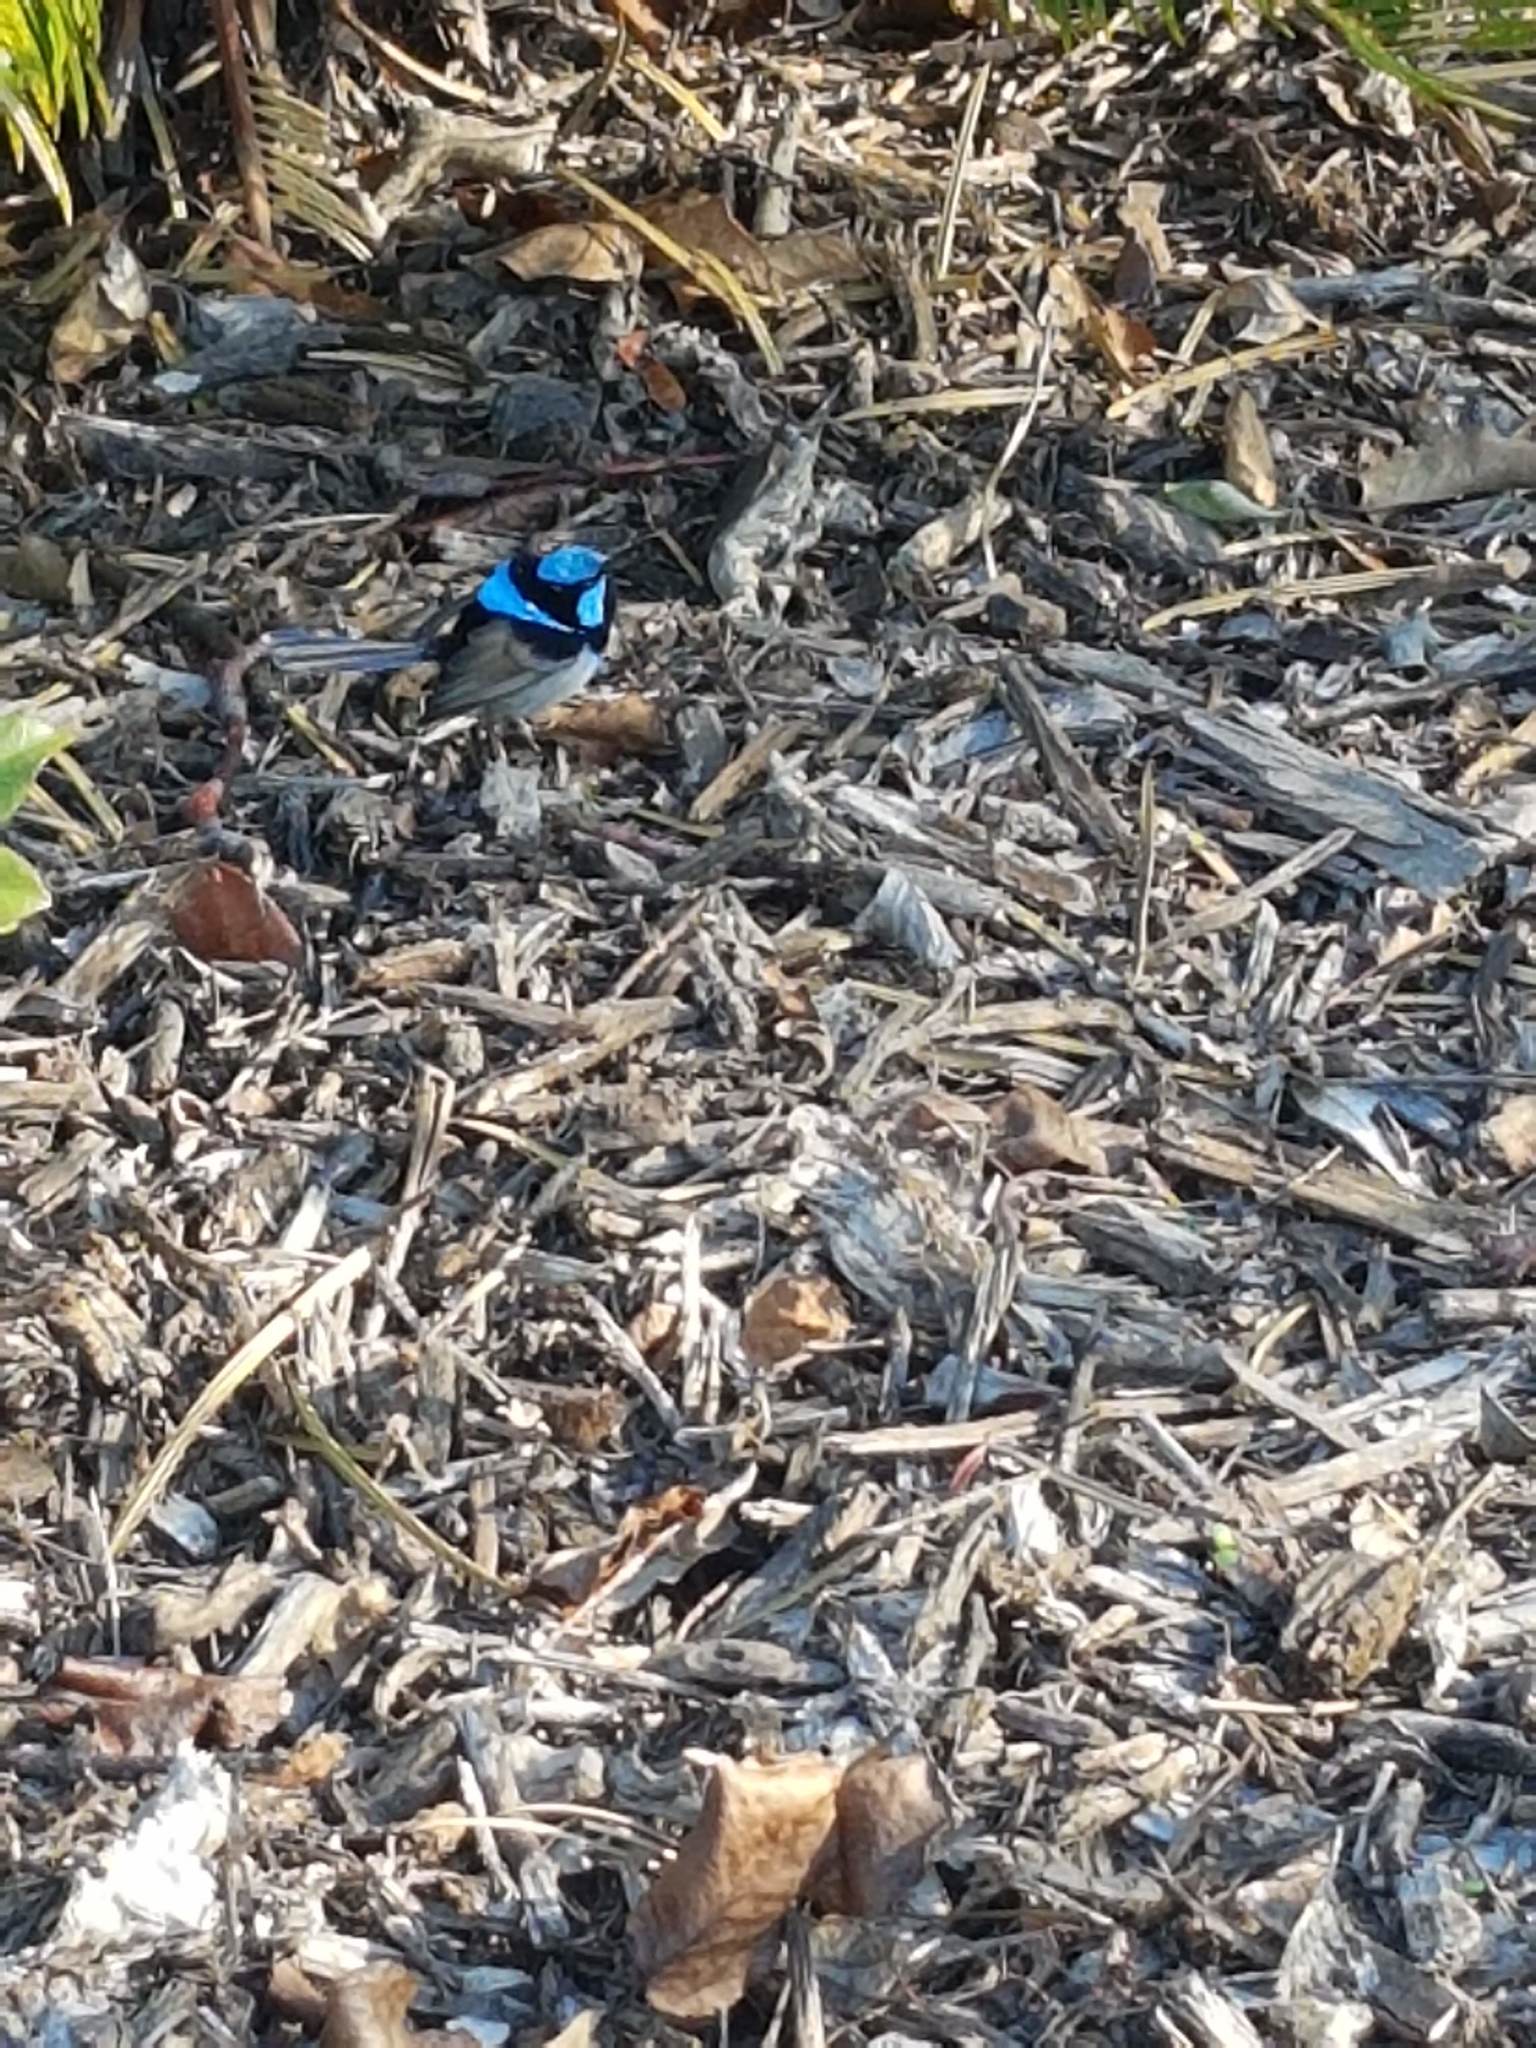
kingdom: Animalia
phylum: Chordata
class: Aves
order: Passeriformes
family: Maluridae
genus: Malurus
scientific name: Malurus cyaneus
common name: Superb fairywren
